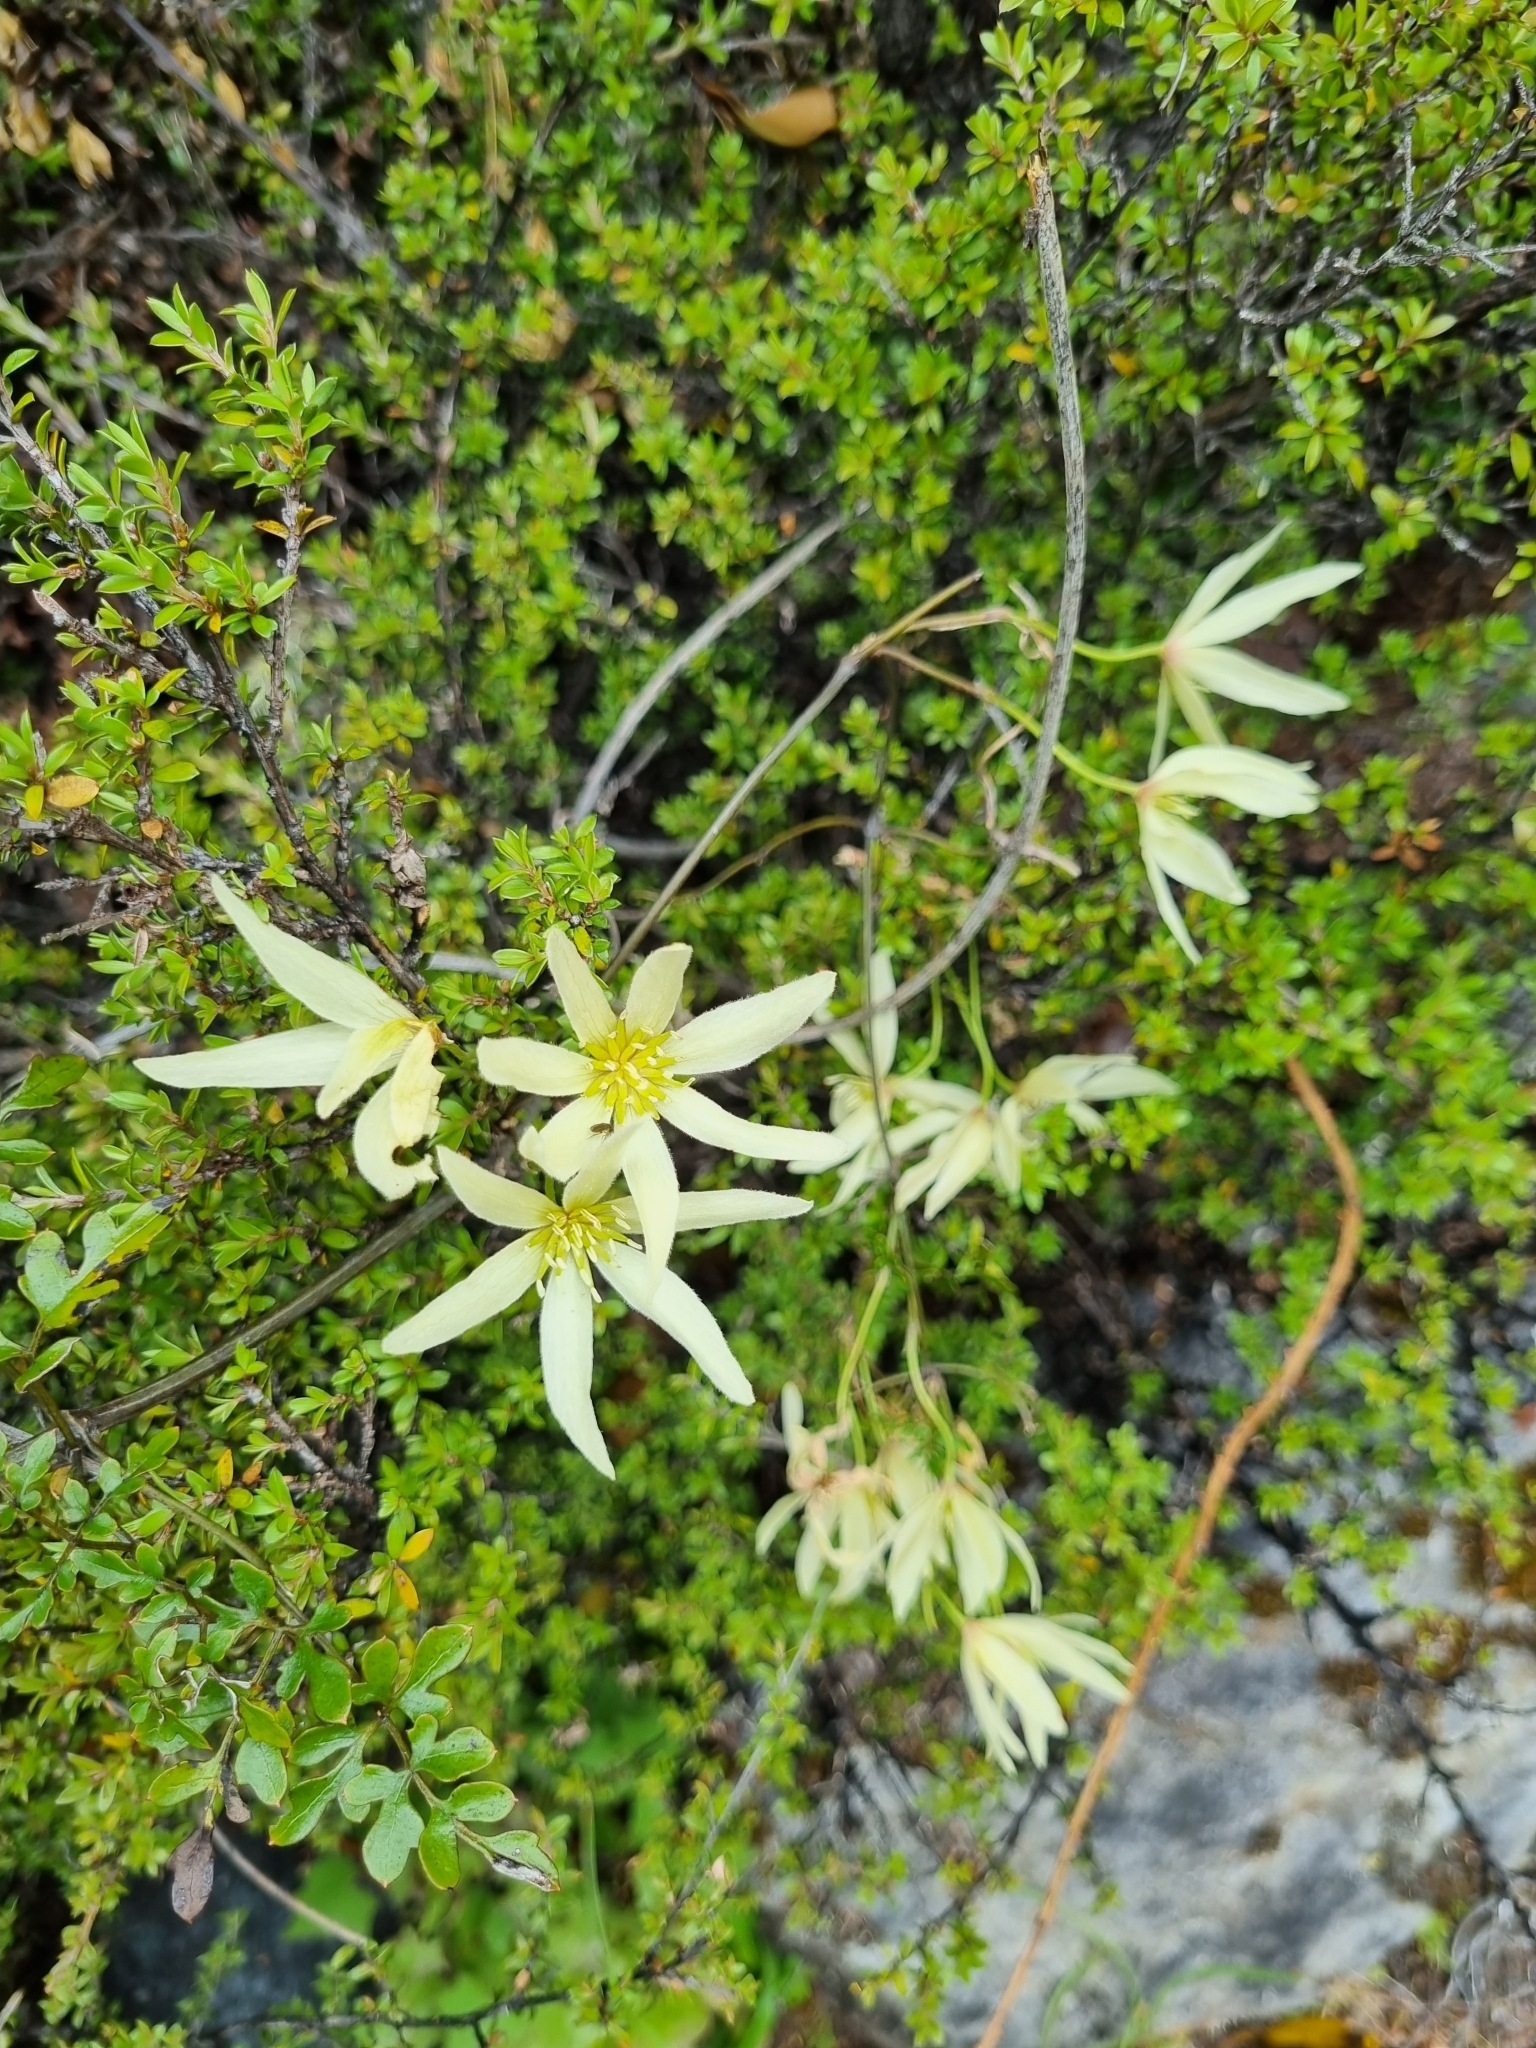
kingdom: Plantae
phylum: Tracheophyta
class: Magnoliopsida
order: Ranunculales
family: Ranunculaceae
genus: Clematis
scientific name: Clematis forsteri
